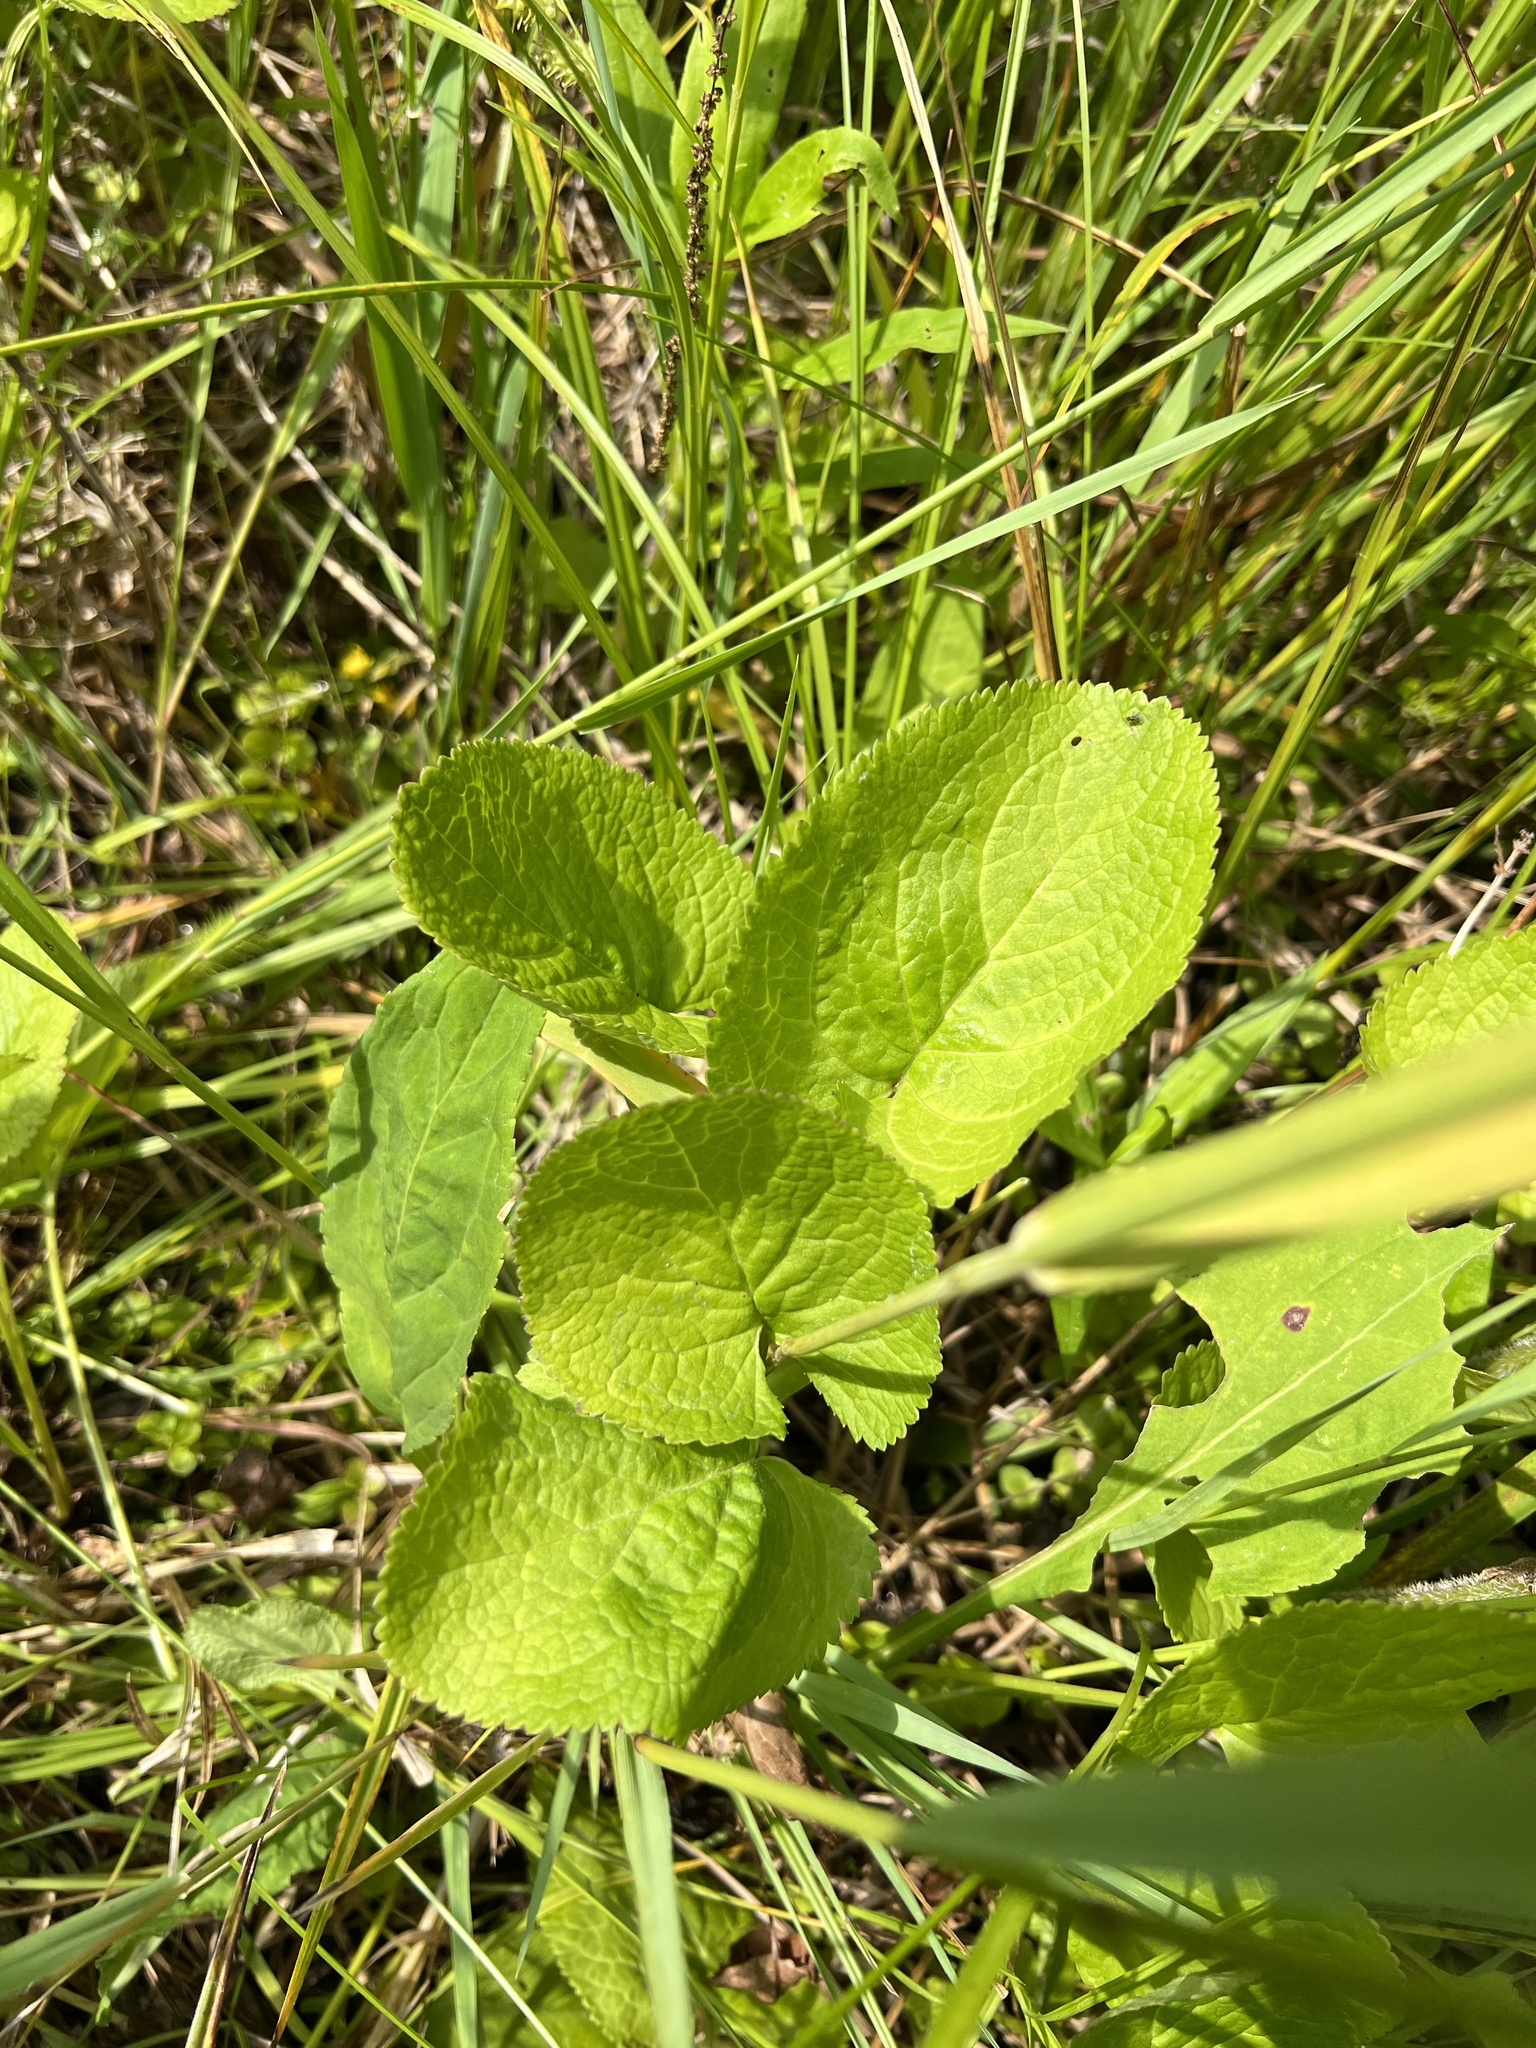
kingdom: Plantae
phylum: Tracheophyta
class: Magnoliopsida
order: Asterales
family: Asteraceae
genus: Packera
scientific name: Packera aurea
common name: Golden groundsel
